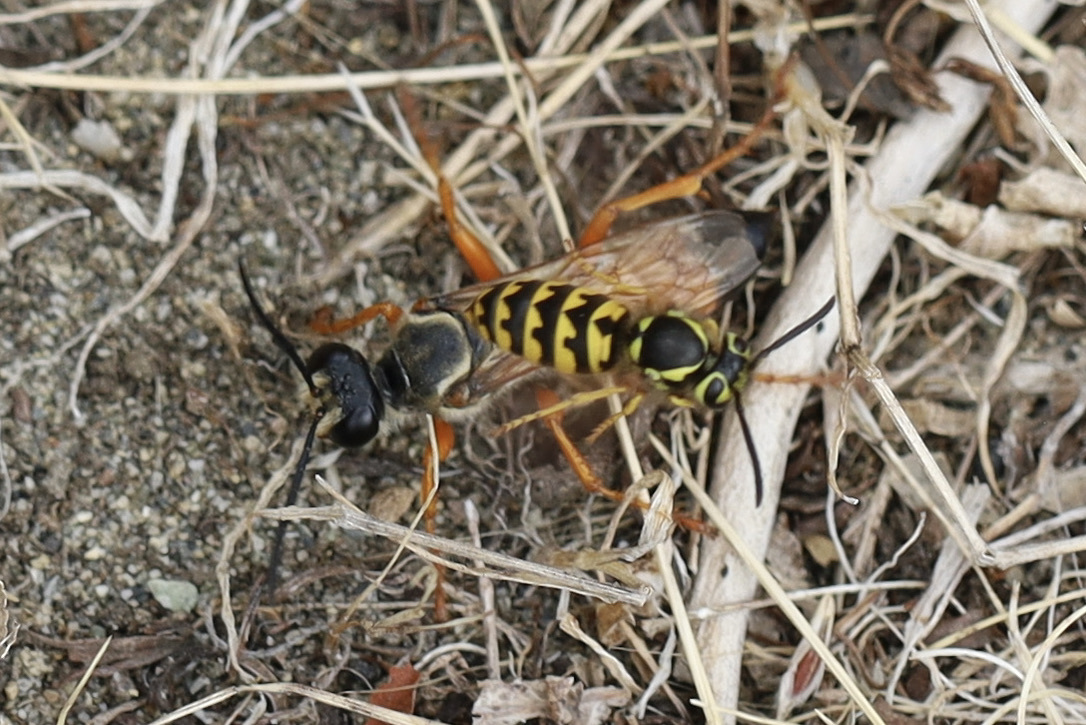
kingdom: Animalia
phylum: Arthropoda
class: Insecta
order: Hymenoptera
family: Vespidae
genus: Vespula
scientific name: Vespula pensylvanica
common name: Western yellowjacket
